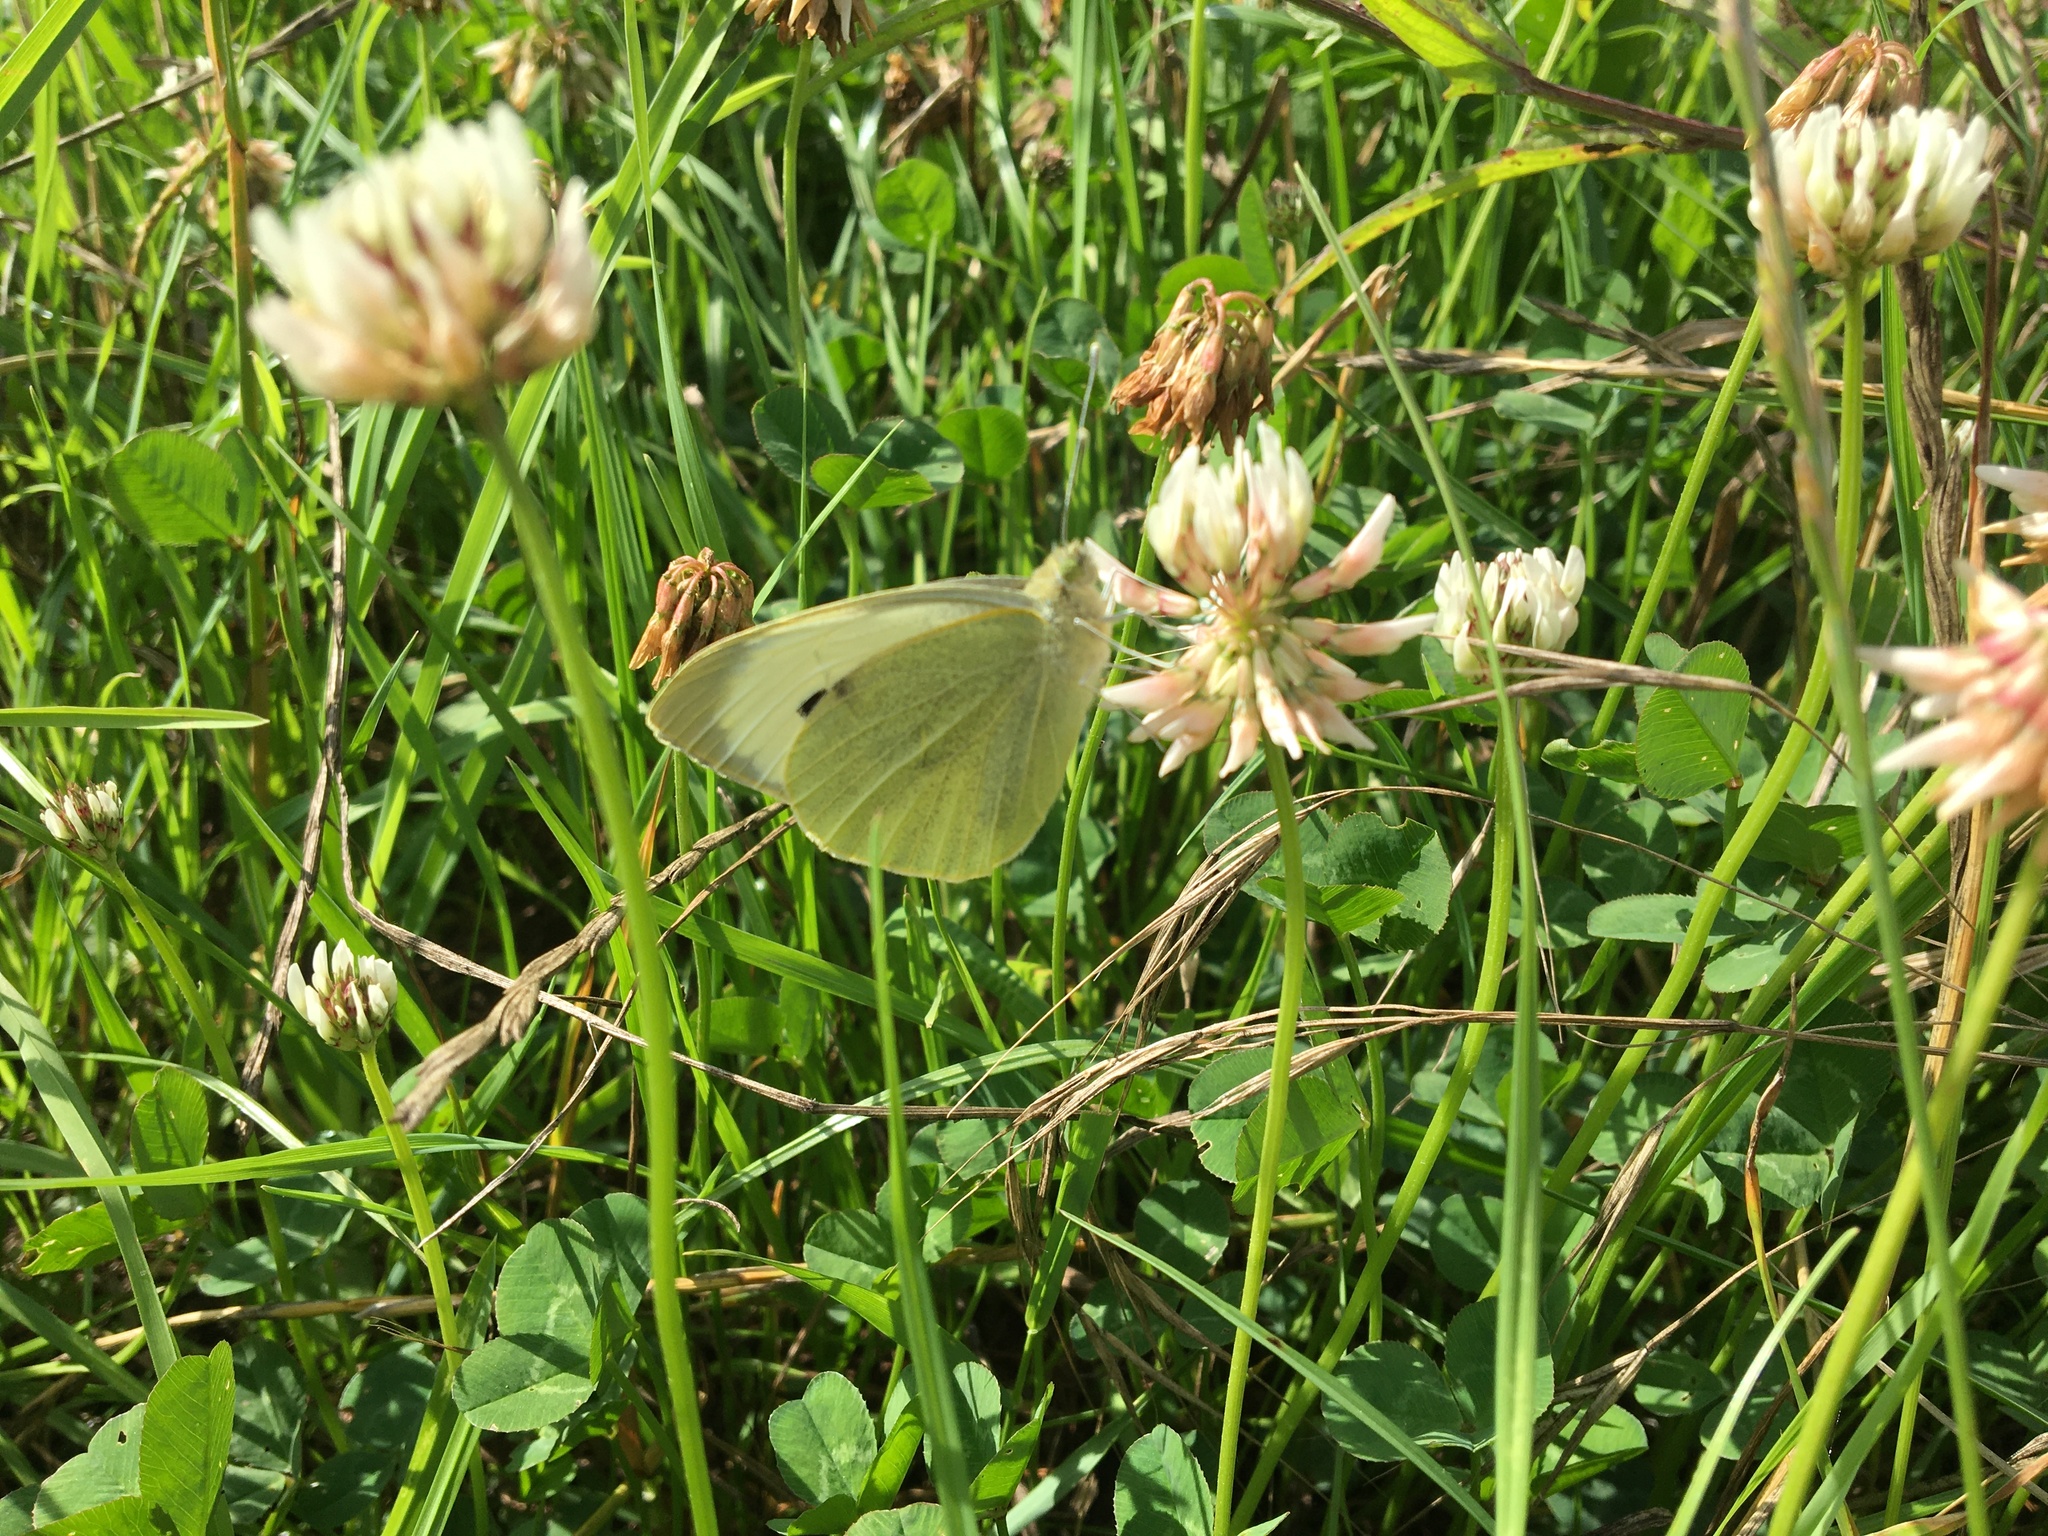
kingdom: Animalia
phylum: Arthropoda
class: Insecta
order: Lepidoptera
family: Pieridae
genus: Pieris
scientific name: Pieris brassicae
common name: Large white
